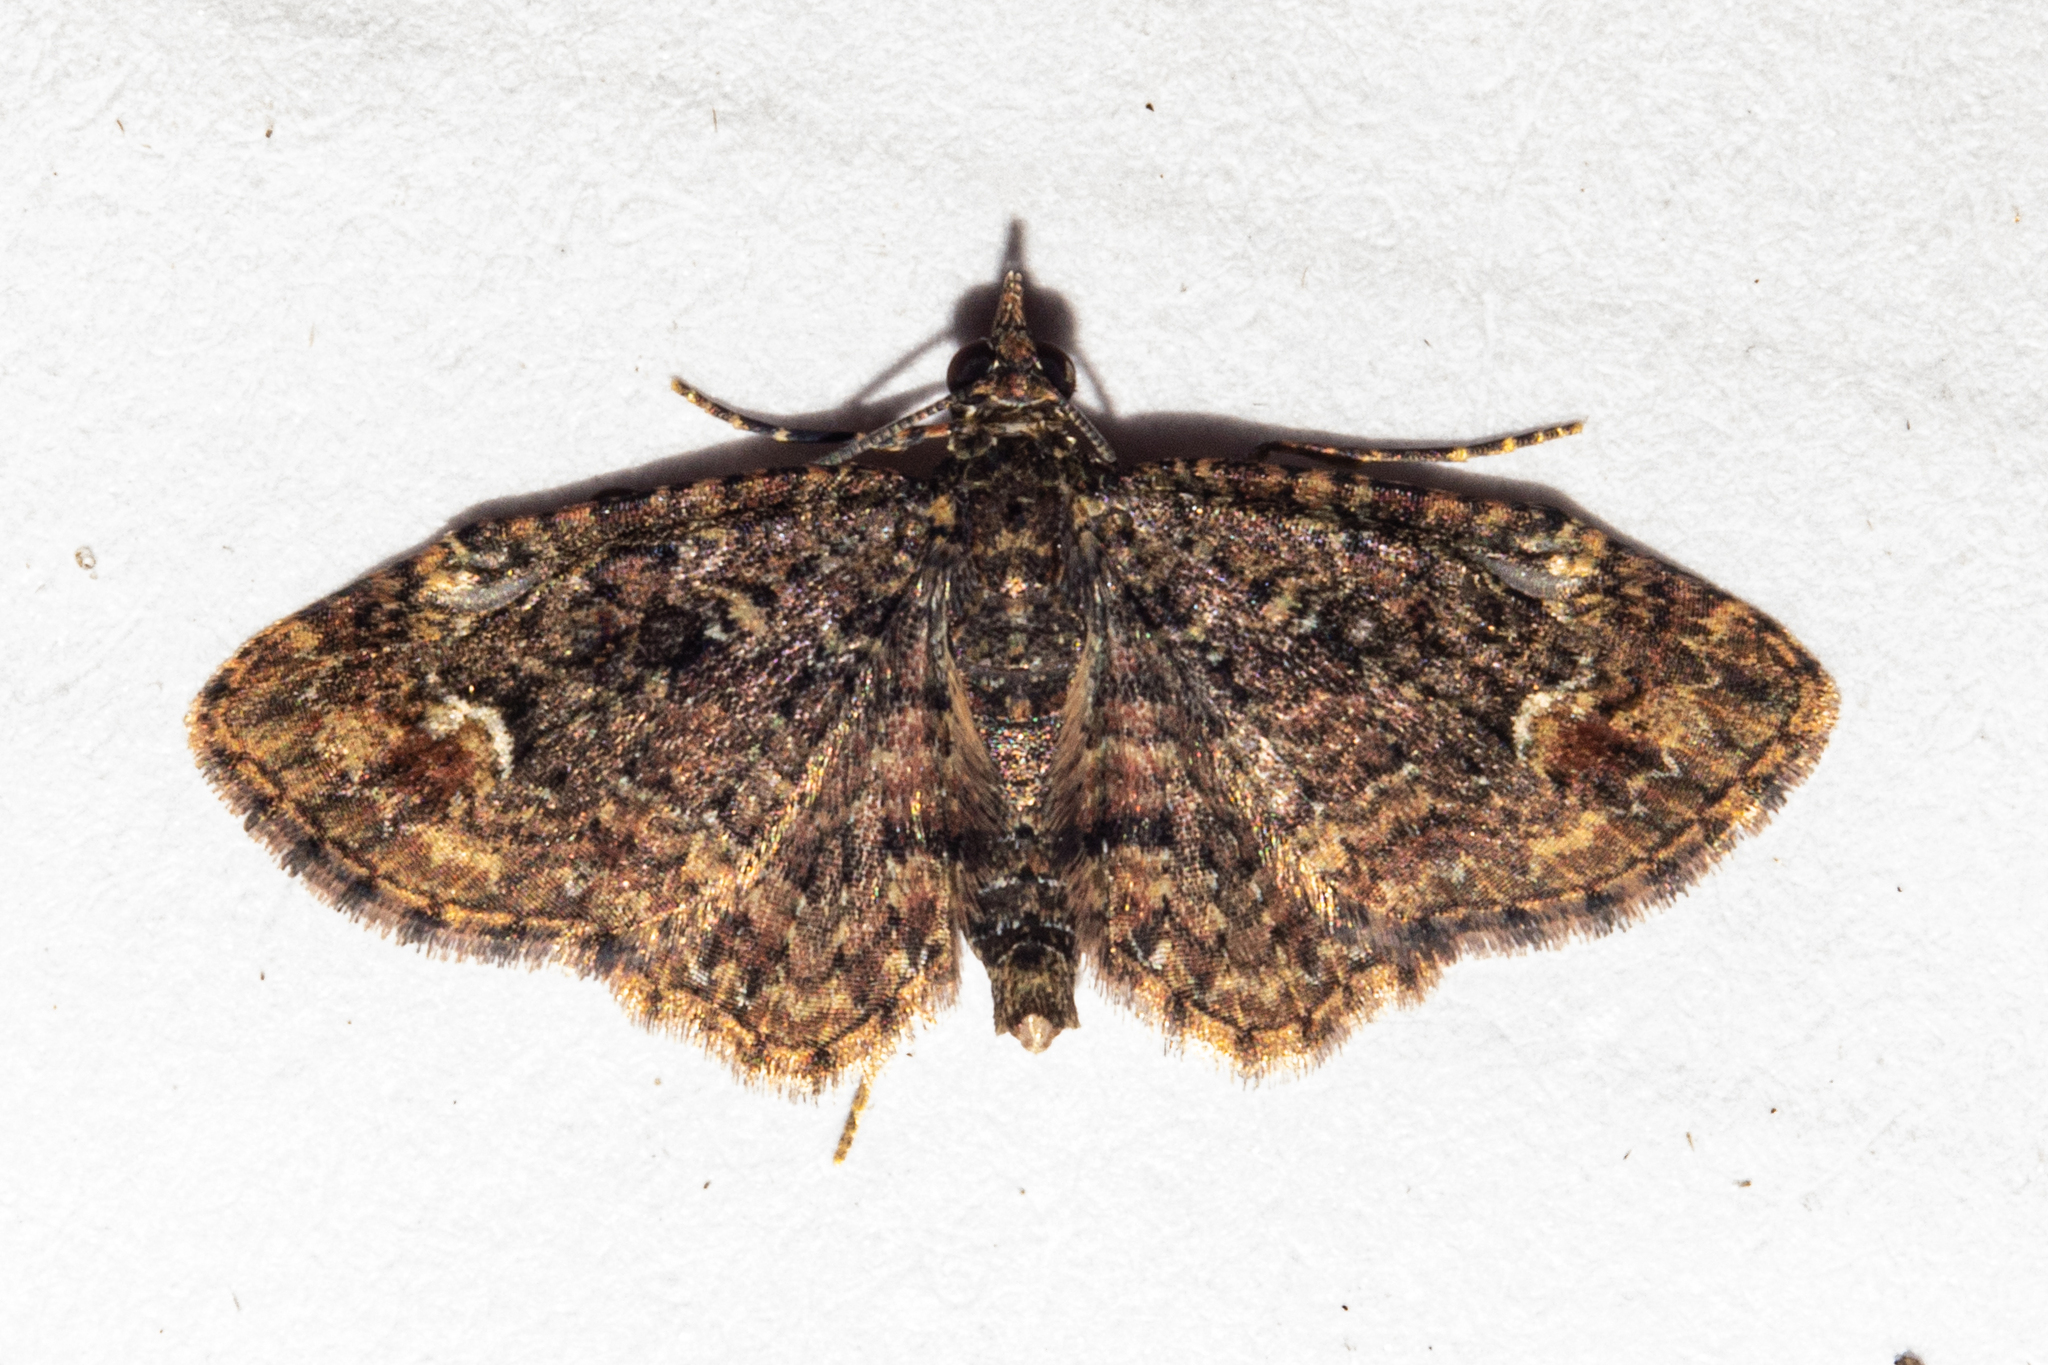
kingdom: Animalia
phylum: Arthropoda
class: Insecta
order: Lepidoptera
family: Geometridae
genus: Pasiphilodes
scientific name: Pasiphilodes testulata
